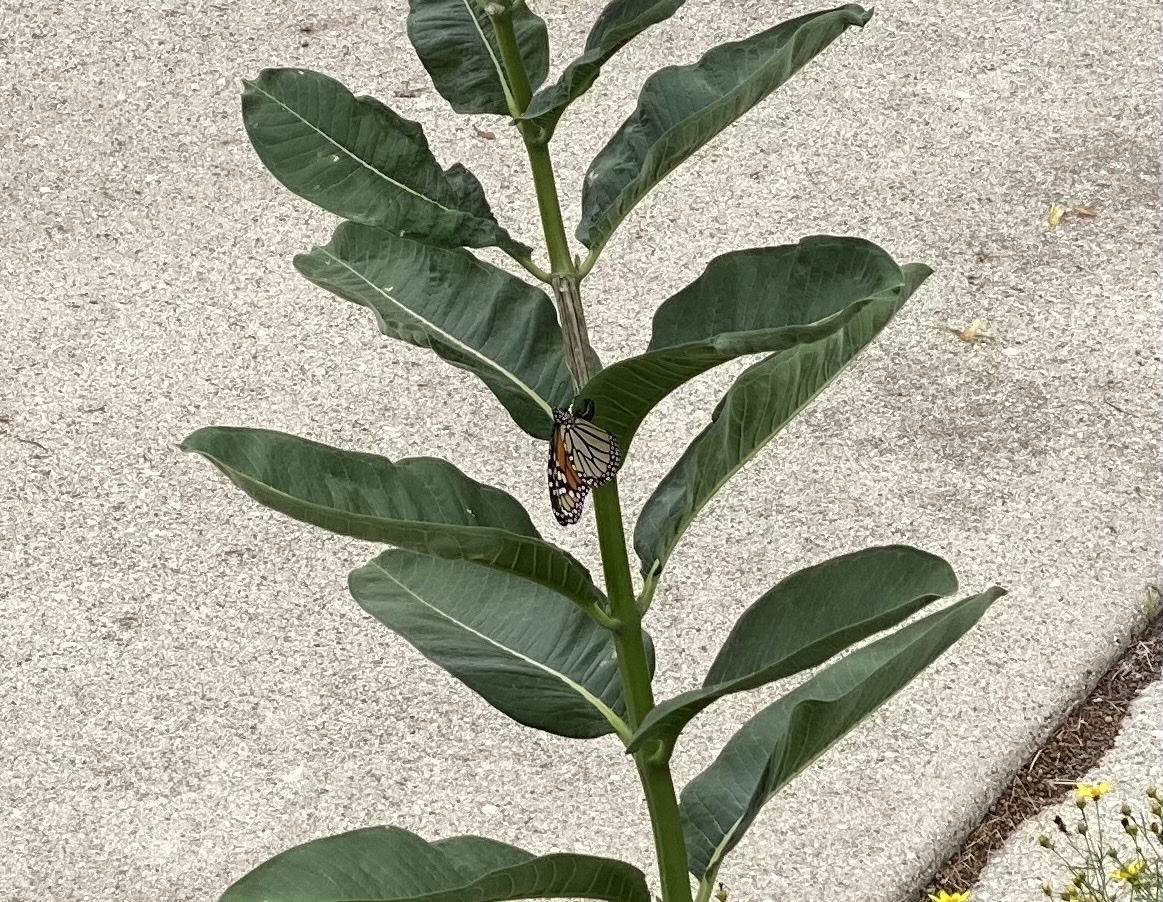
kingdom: Animalia
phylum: Arthropoda
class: Insecta
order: Lepidoptera
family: Nymphalidae
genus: Danaus
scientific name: Danaus plexippus
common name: Monarch
